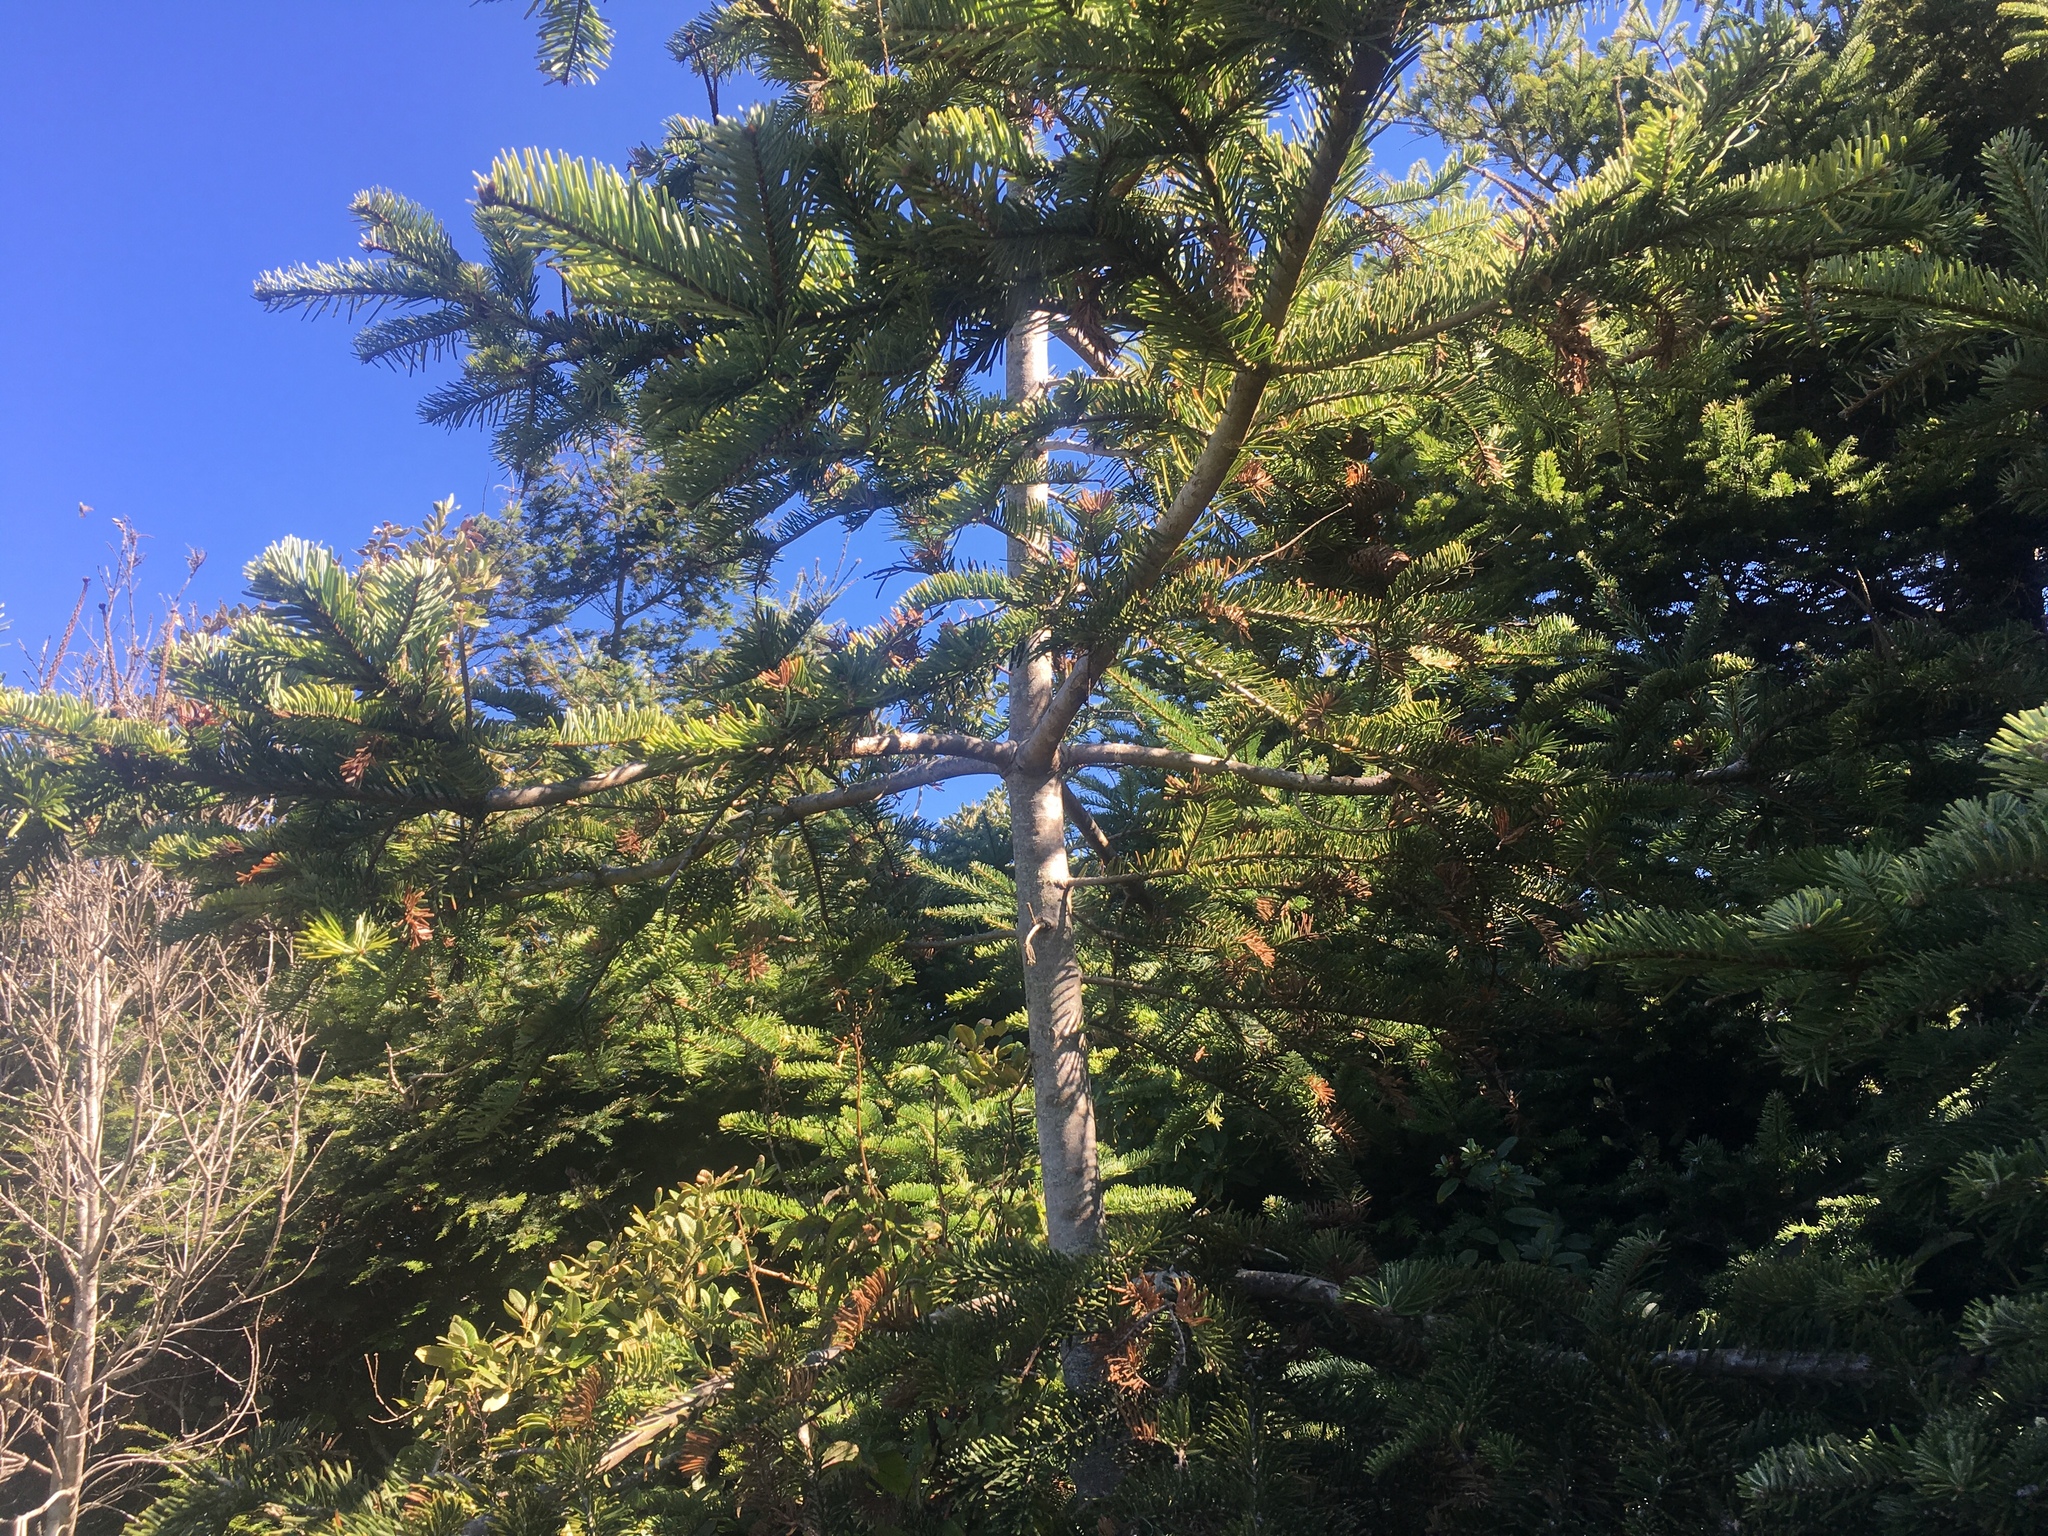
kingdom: Plantae
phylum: Tracheophyta
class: Pinopsida
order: Pinales
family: Pinaceae
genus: Abies
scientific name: Abies grandis
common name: Giant fir
